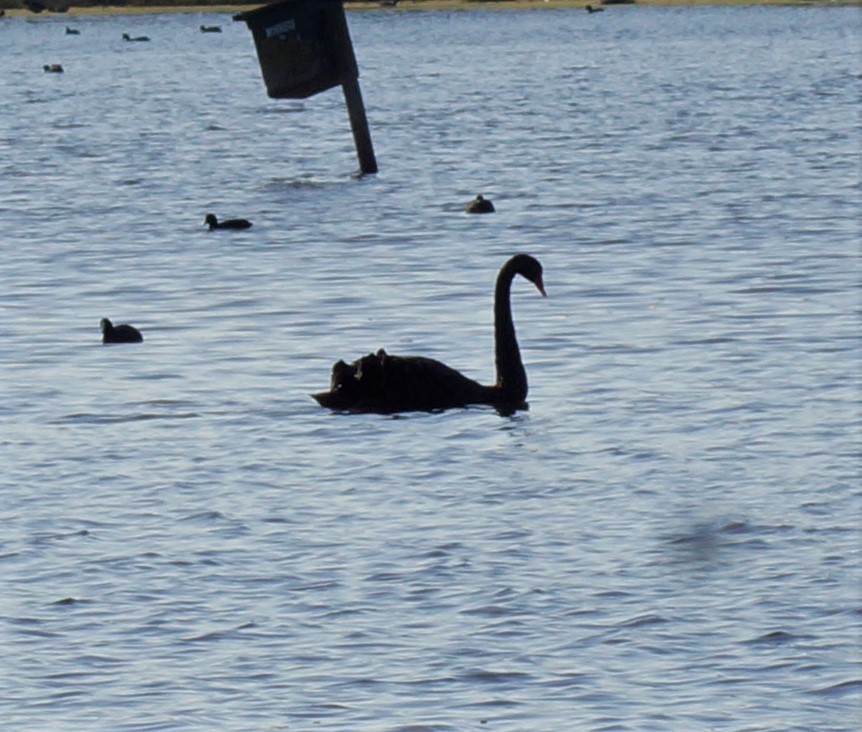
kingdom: Animalia
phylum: Chordata
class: Aves
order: Anseriformes
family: Anatidae
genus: Cygnus
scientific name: Cygnus atratus
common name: Black swan
